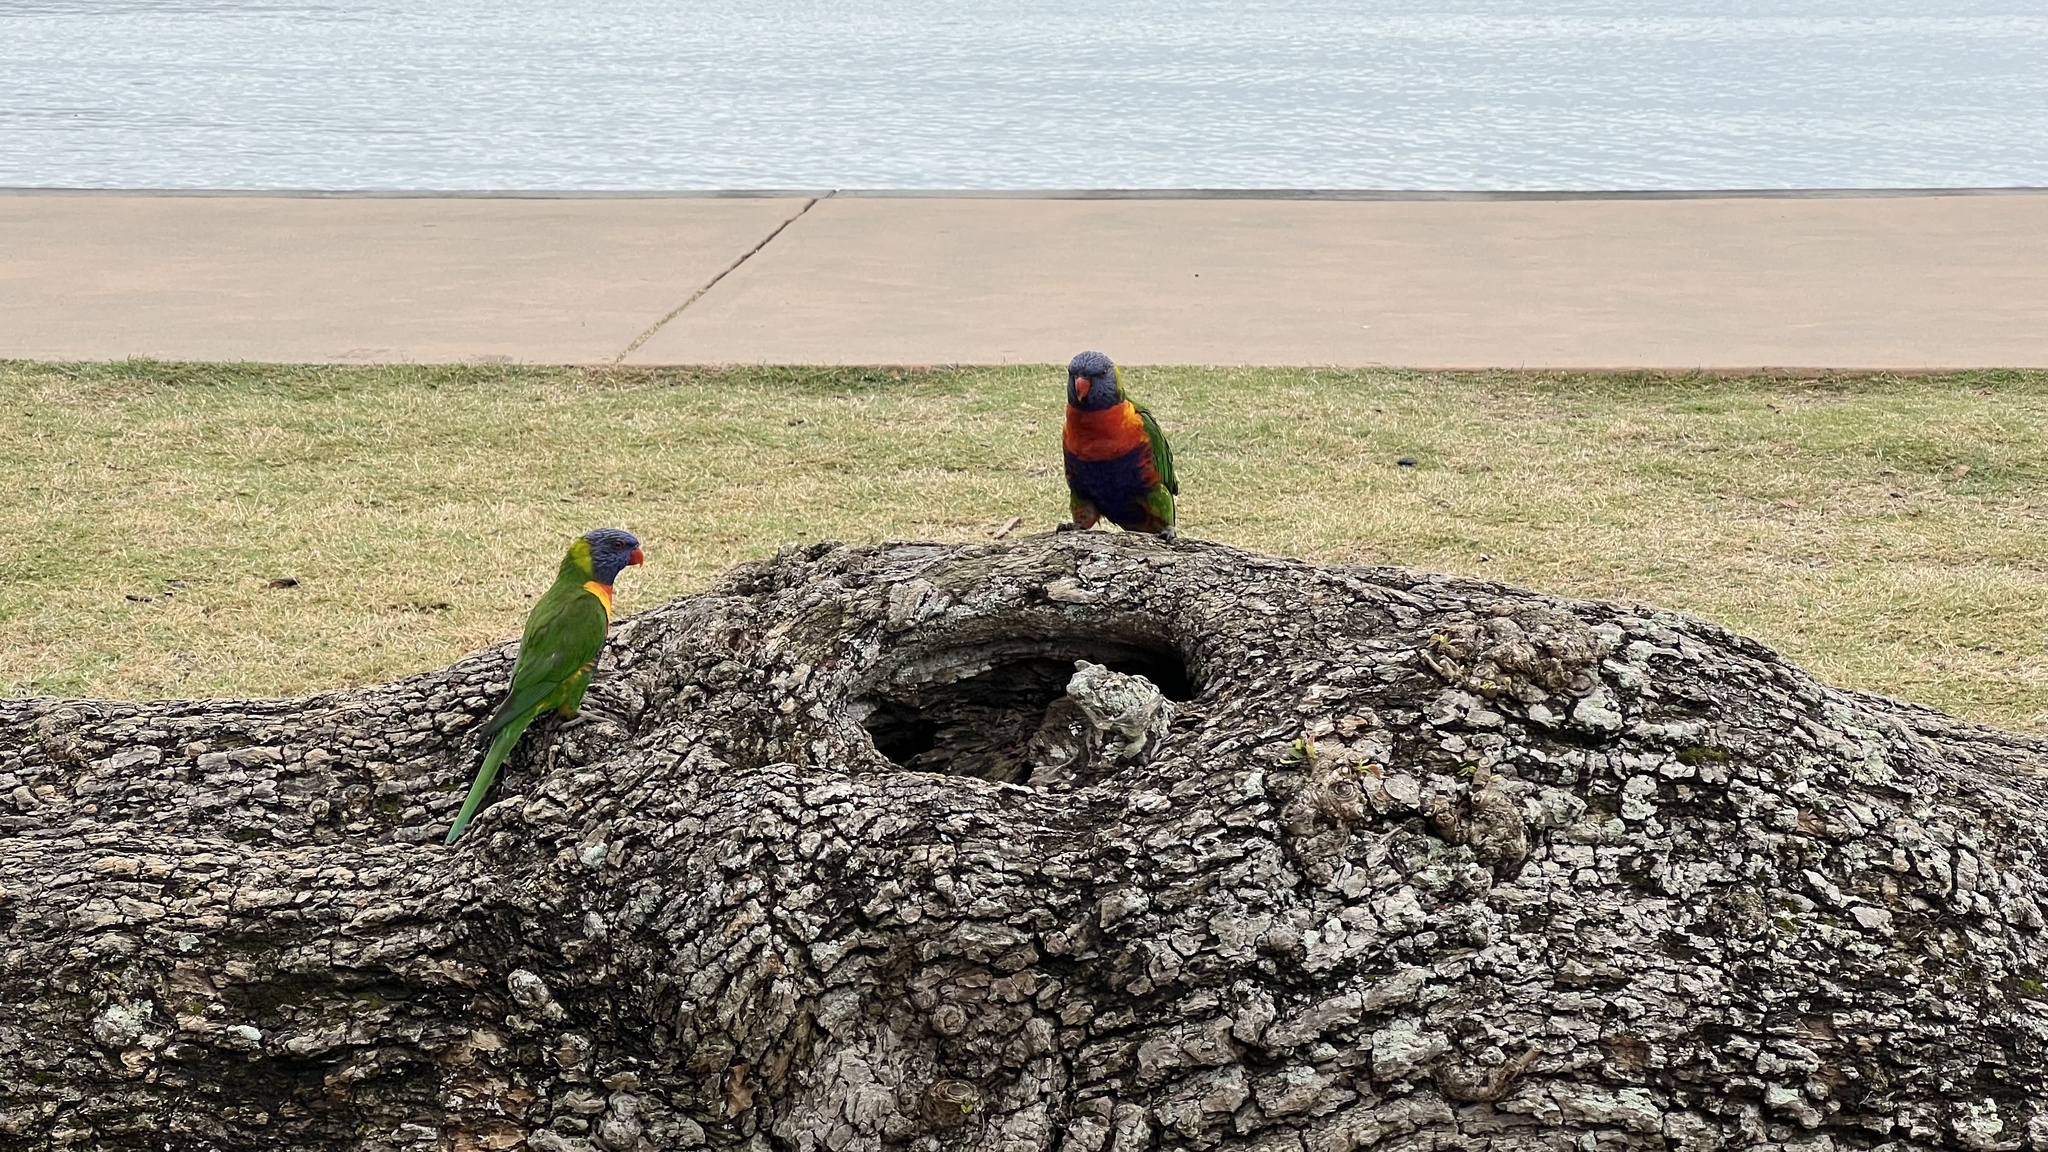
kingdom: Animalia
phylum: Chordata
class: Aves
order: Psittaciformes
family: Psittacidae
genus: Trichoglossus
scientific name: Trichoglossus haematodus
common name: Coconut lorikeet
